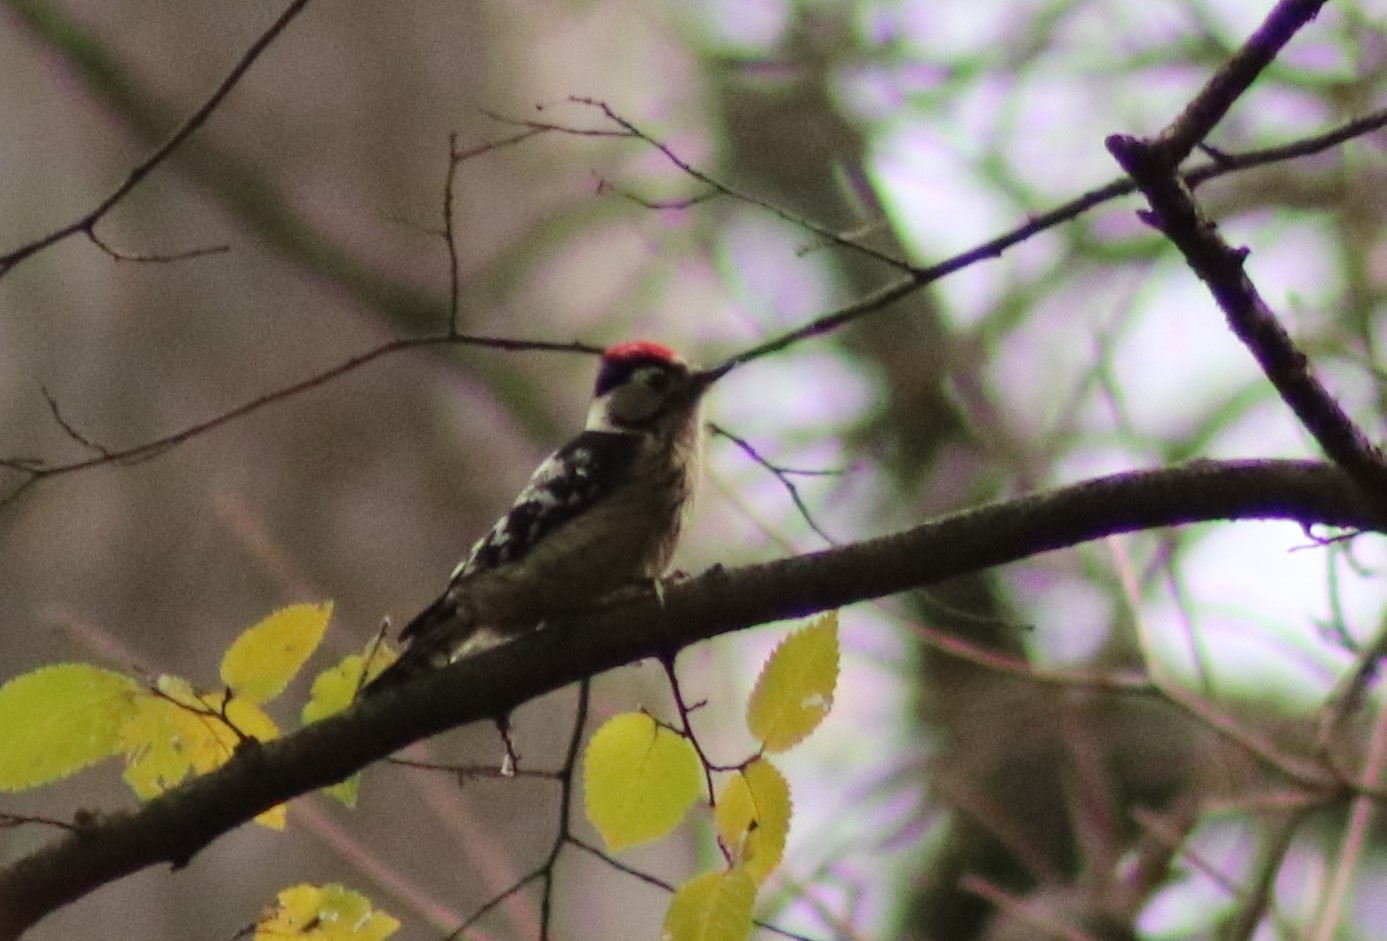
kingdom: Animalia
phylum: Chordata
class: Aves
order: Piciformes
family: Picidae
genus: Dryobates
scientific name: Dryobates minor
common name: Lesser spotted woodpecker
